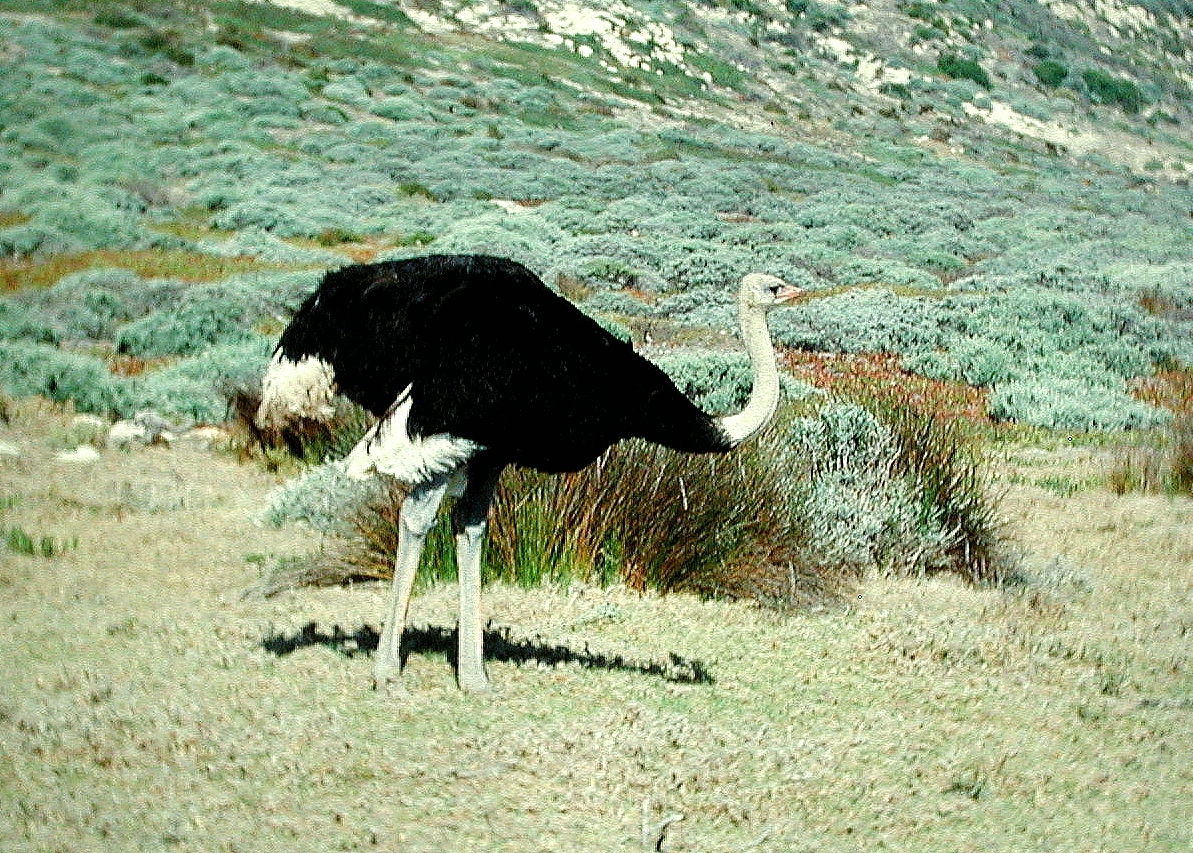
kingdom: Animalia
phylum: Chordata
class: Aves
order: Struthioniformes
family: Struthionidae
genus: Struthio
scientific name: Struthio camelus
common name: Common ostrich
